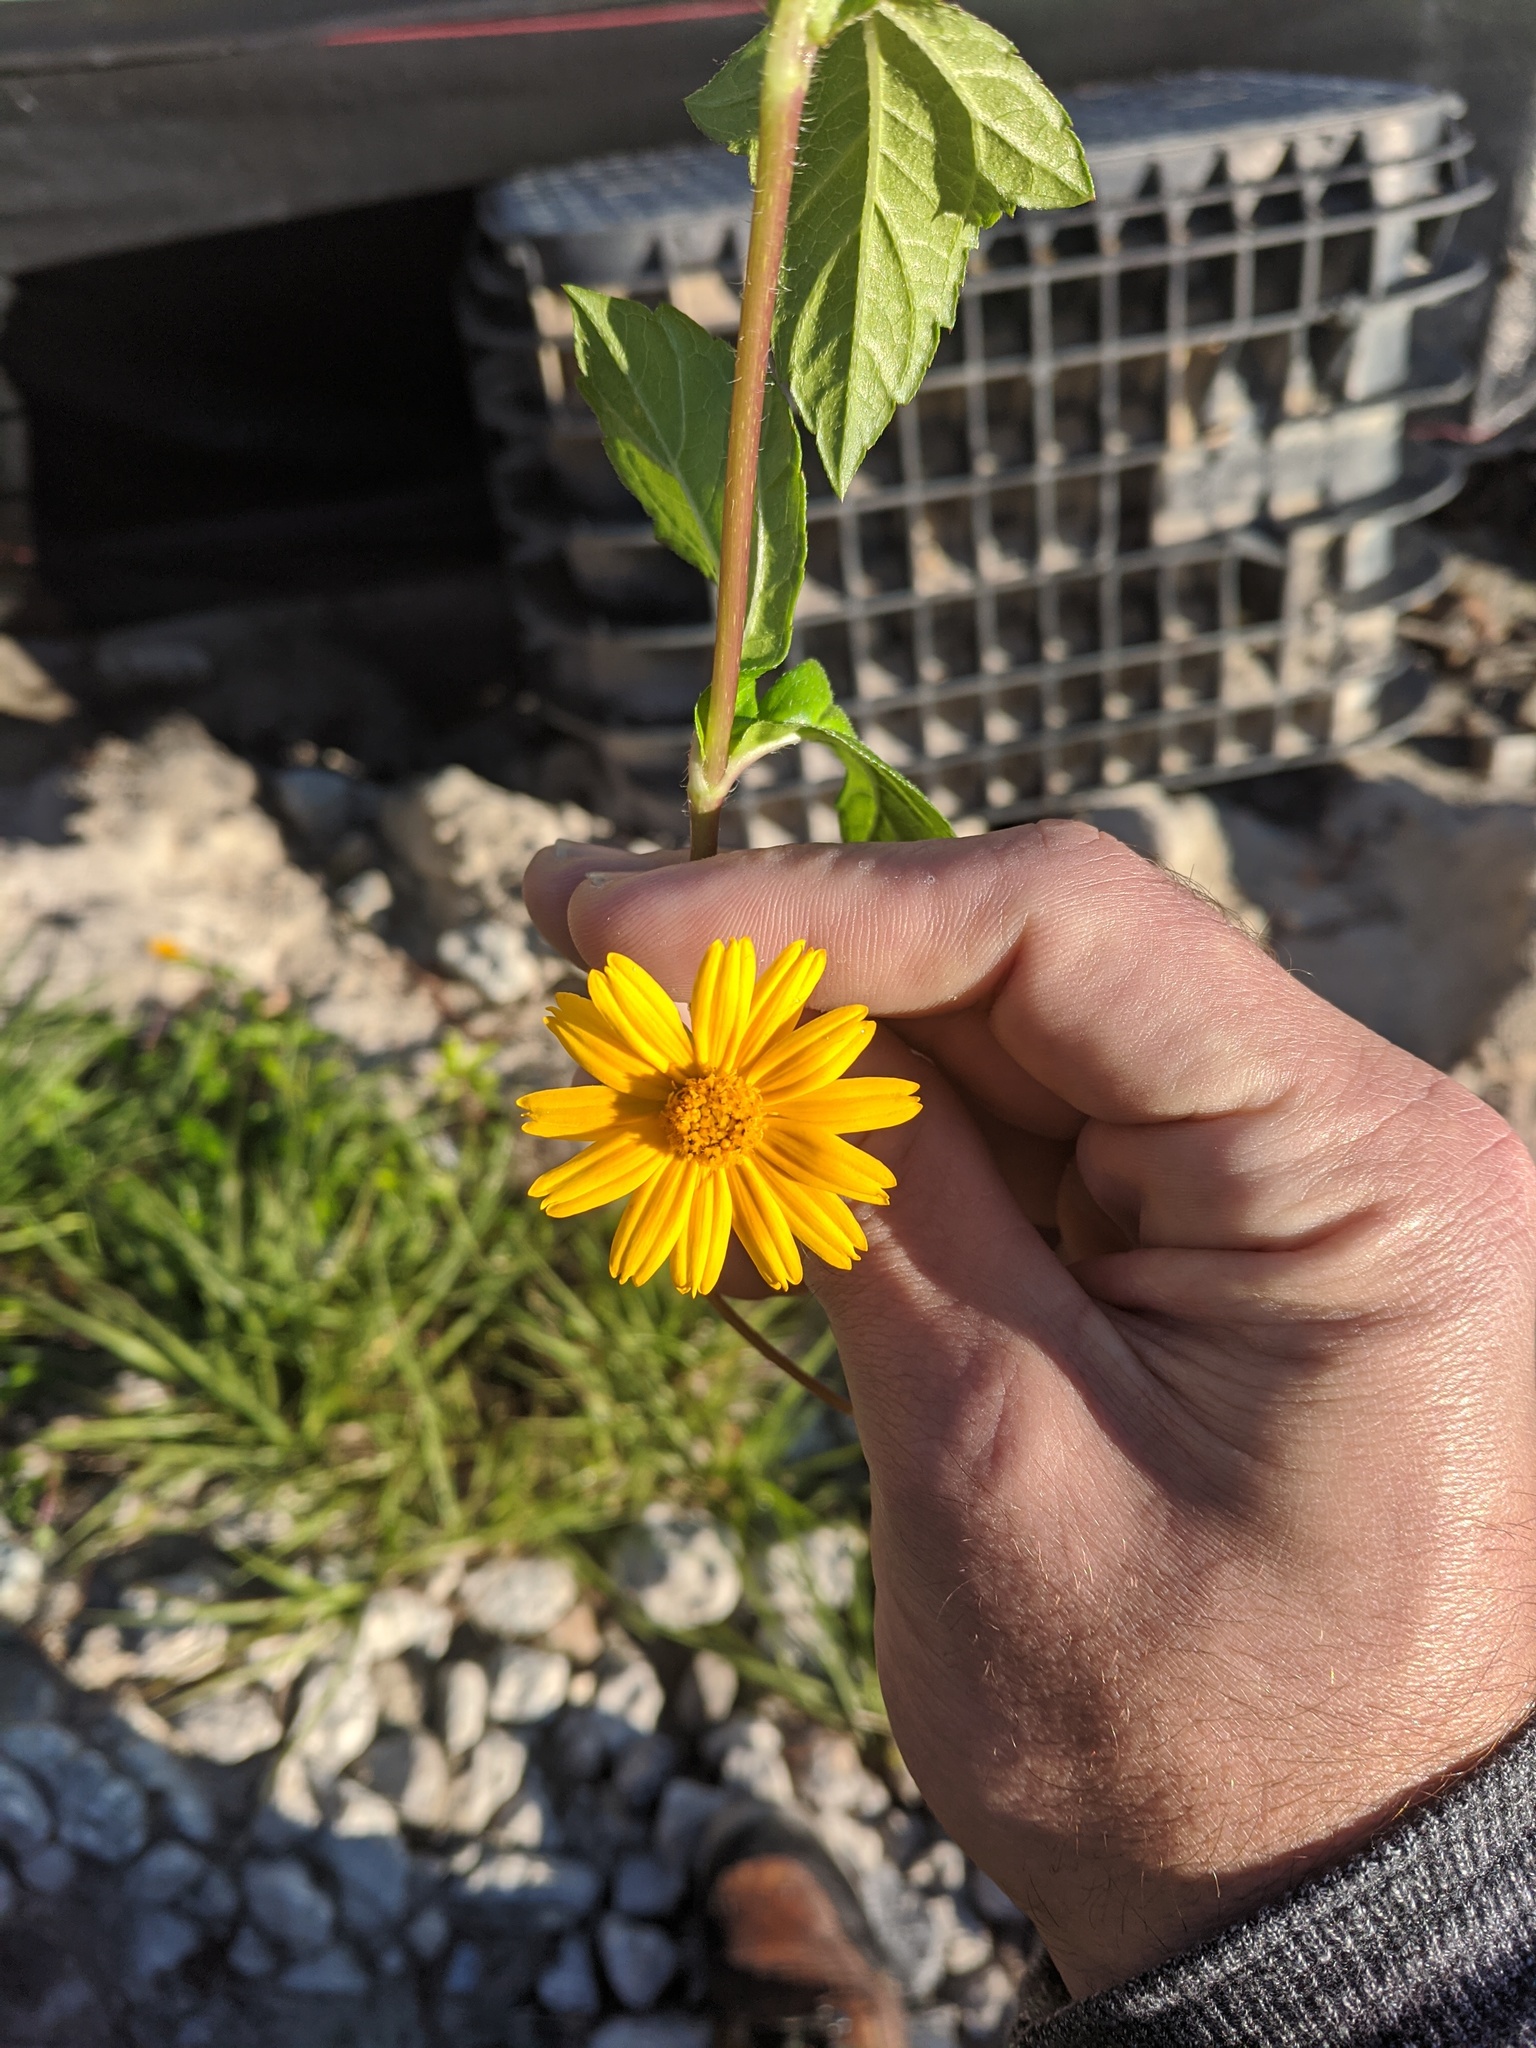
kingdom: Plantae
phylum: Tracheophyta
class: Magnoliopsida
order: Asterales
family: Asteraceae
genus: Sphagneticola
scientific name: Sphagneticola trilobata
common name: Bay biscayne creeping-oxeye
